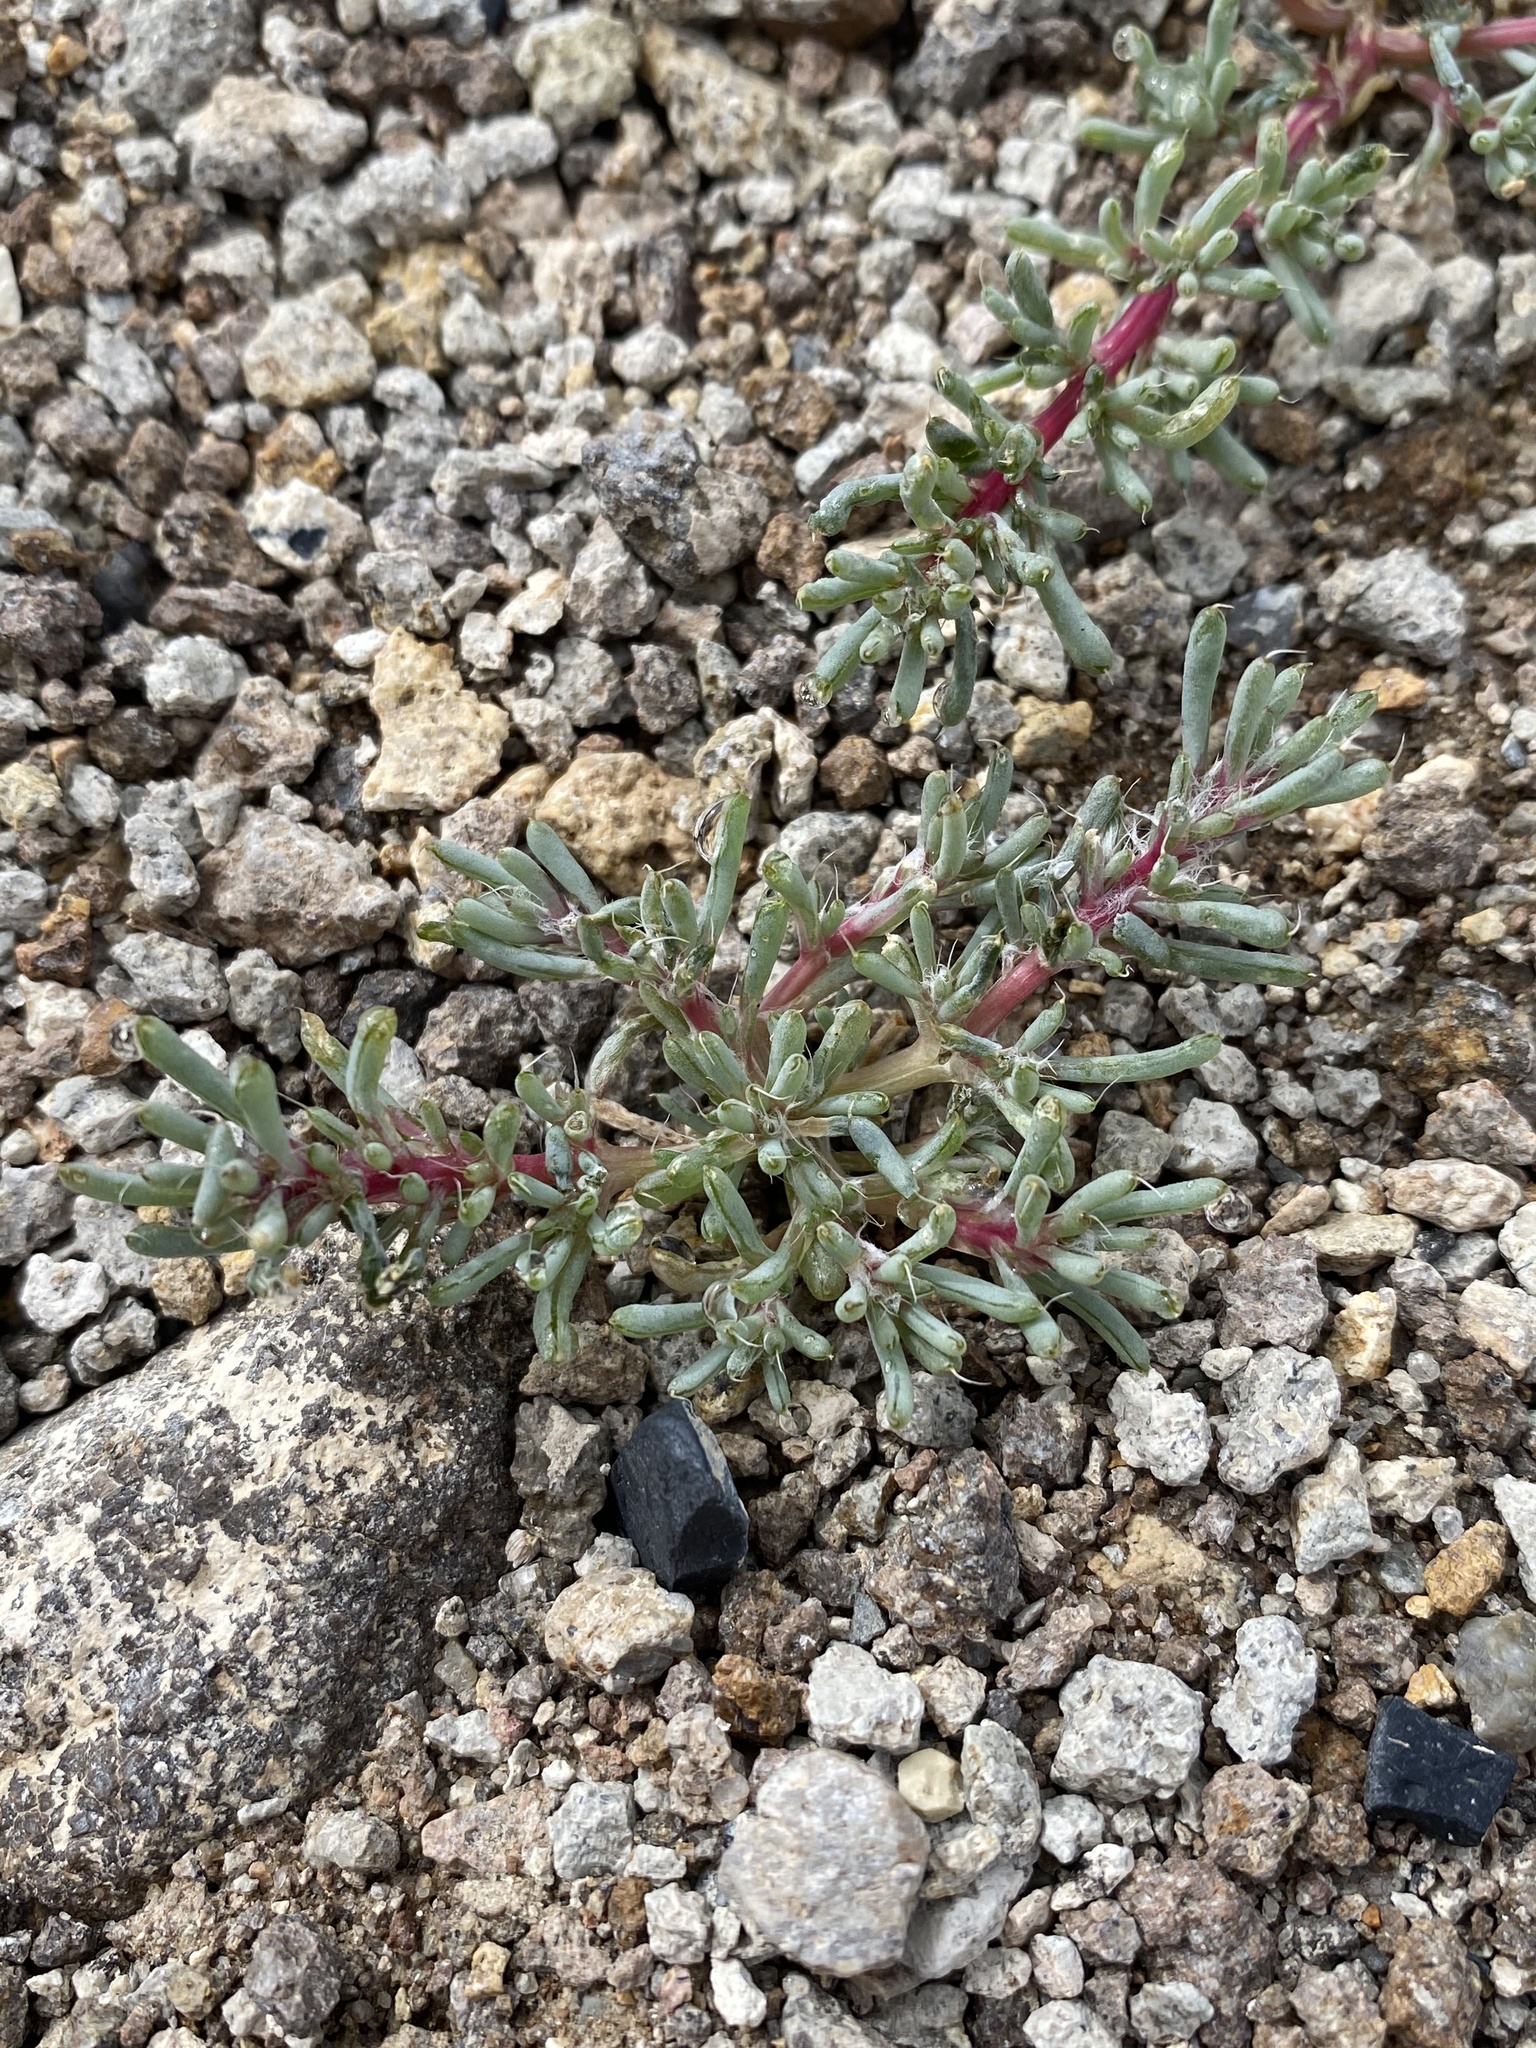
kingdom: Plantae
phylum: Tracheophyta
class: Magnoliopsida
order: Caryophyllales
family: Amaranthaceae
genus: Halogeton
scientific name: Halogeton glomeratus
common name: Saltlover
